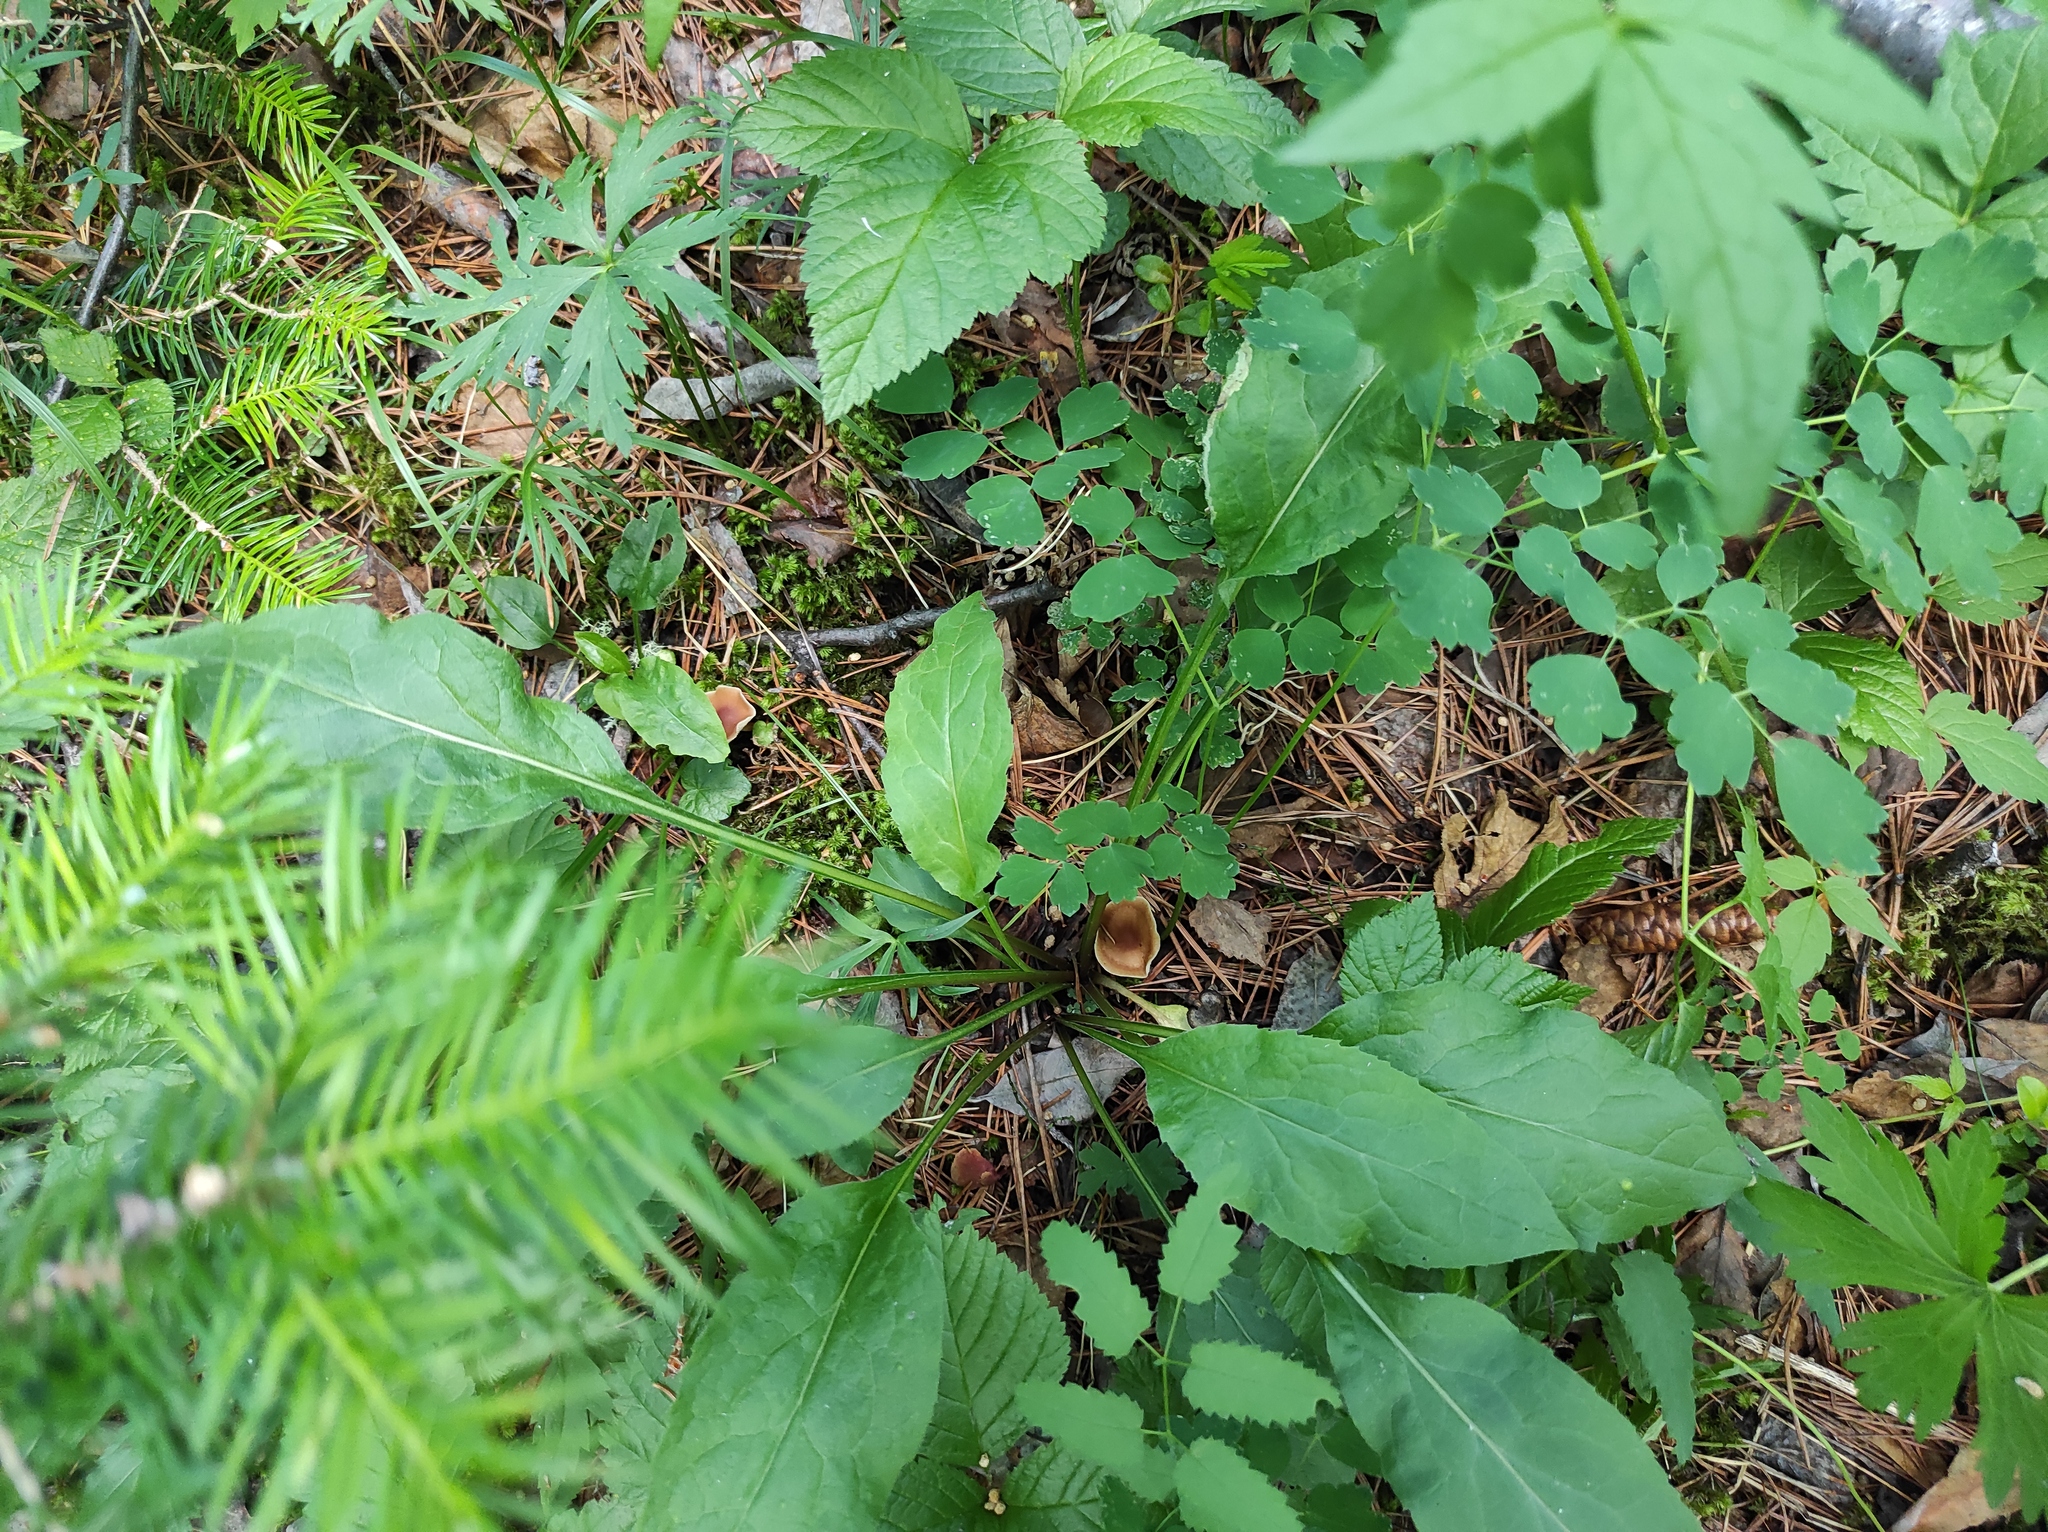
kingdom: Plantae
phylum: Tracheophyta
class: Pinopsida
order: Pinales
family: Pinaceae
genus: Abies
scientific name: Abies sibirica
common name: Siberian fir
